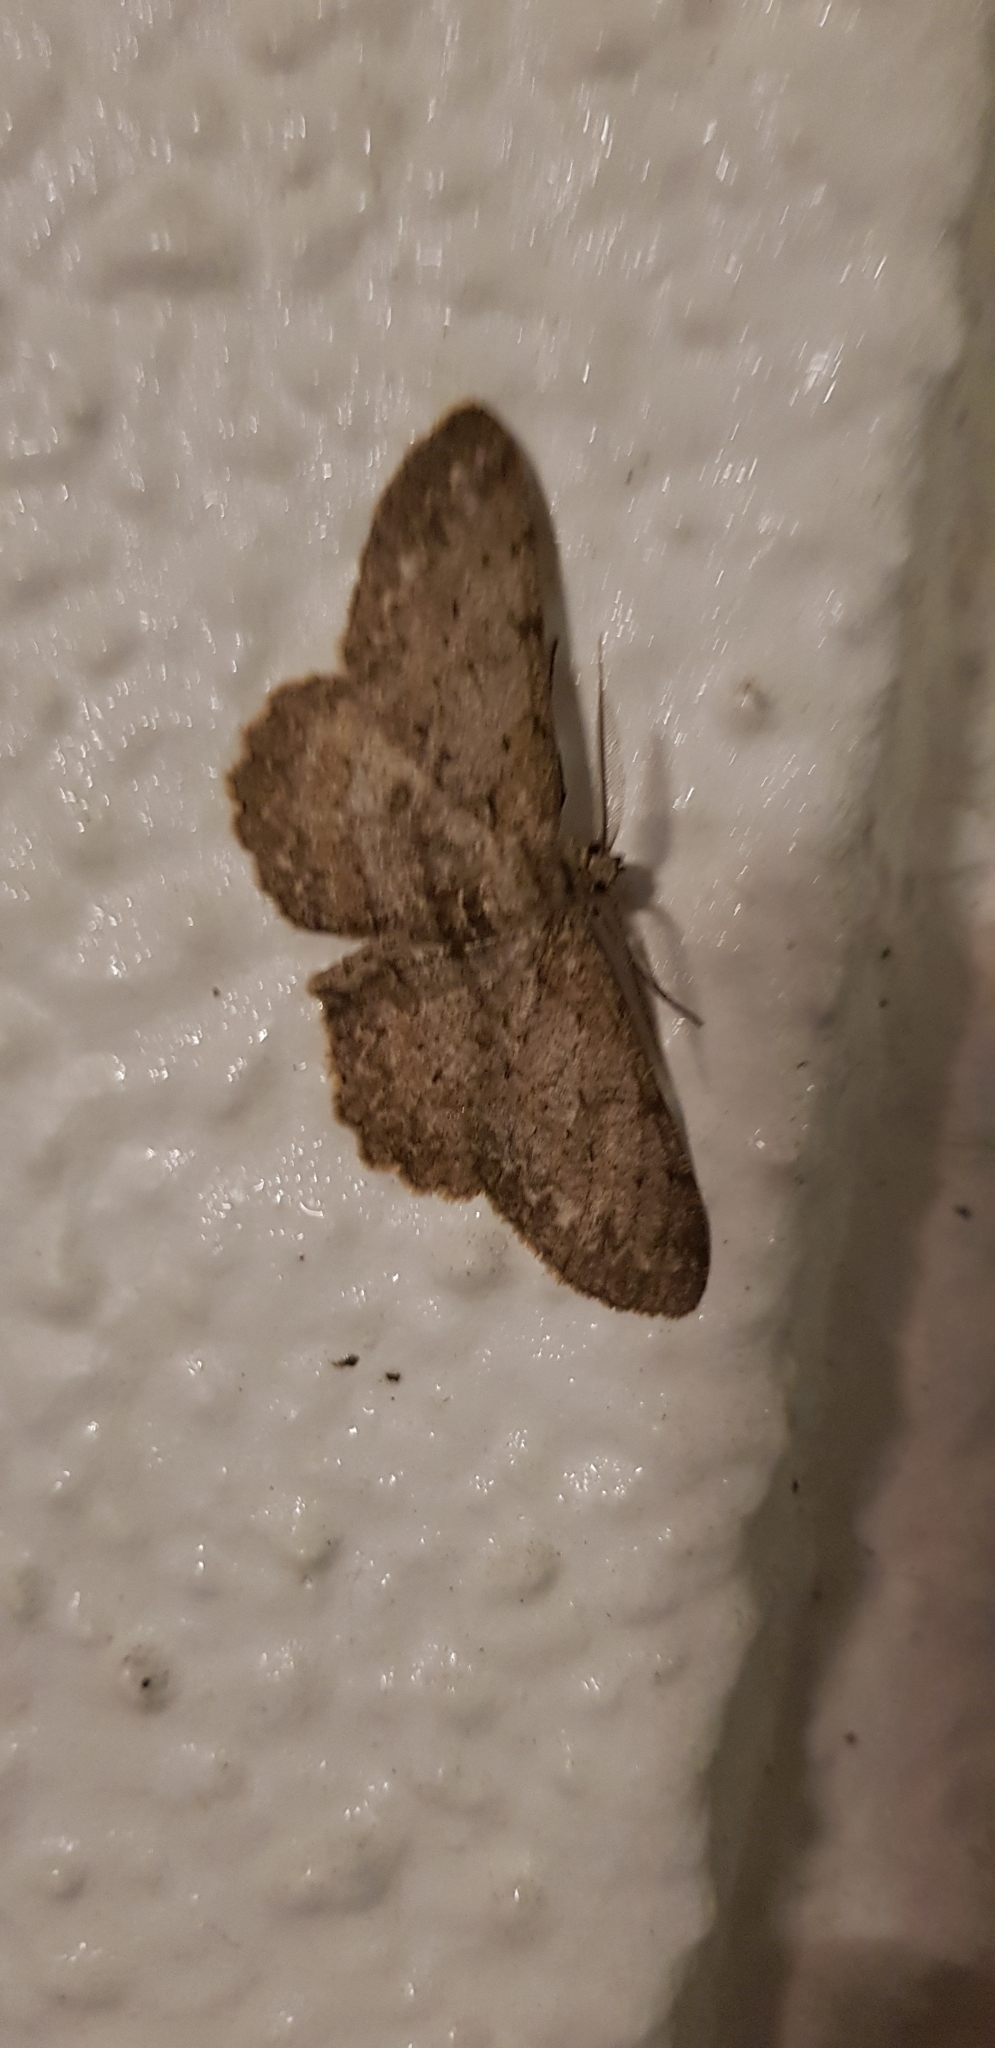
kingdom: Animalia
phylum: Arthropoda
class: Insecta
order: Lepidoptera
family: Geometridae
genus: Hypomecis
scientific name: Hypomecis punctinalis
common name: Pale oak beauty
